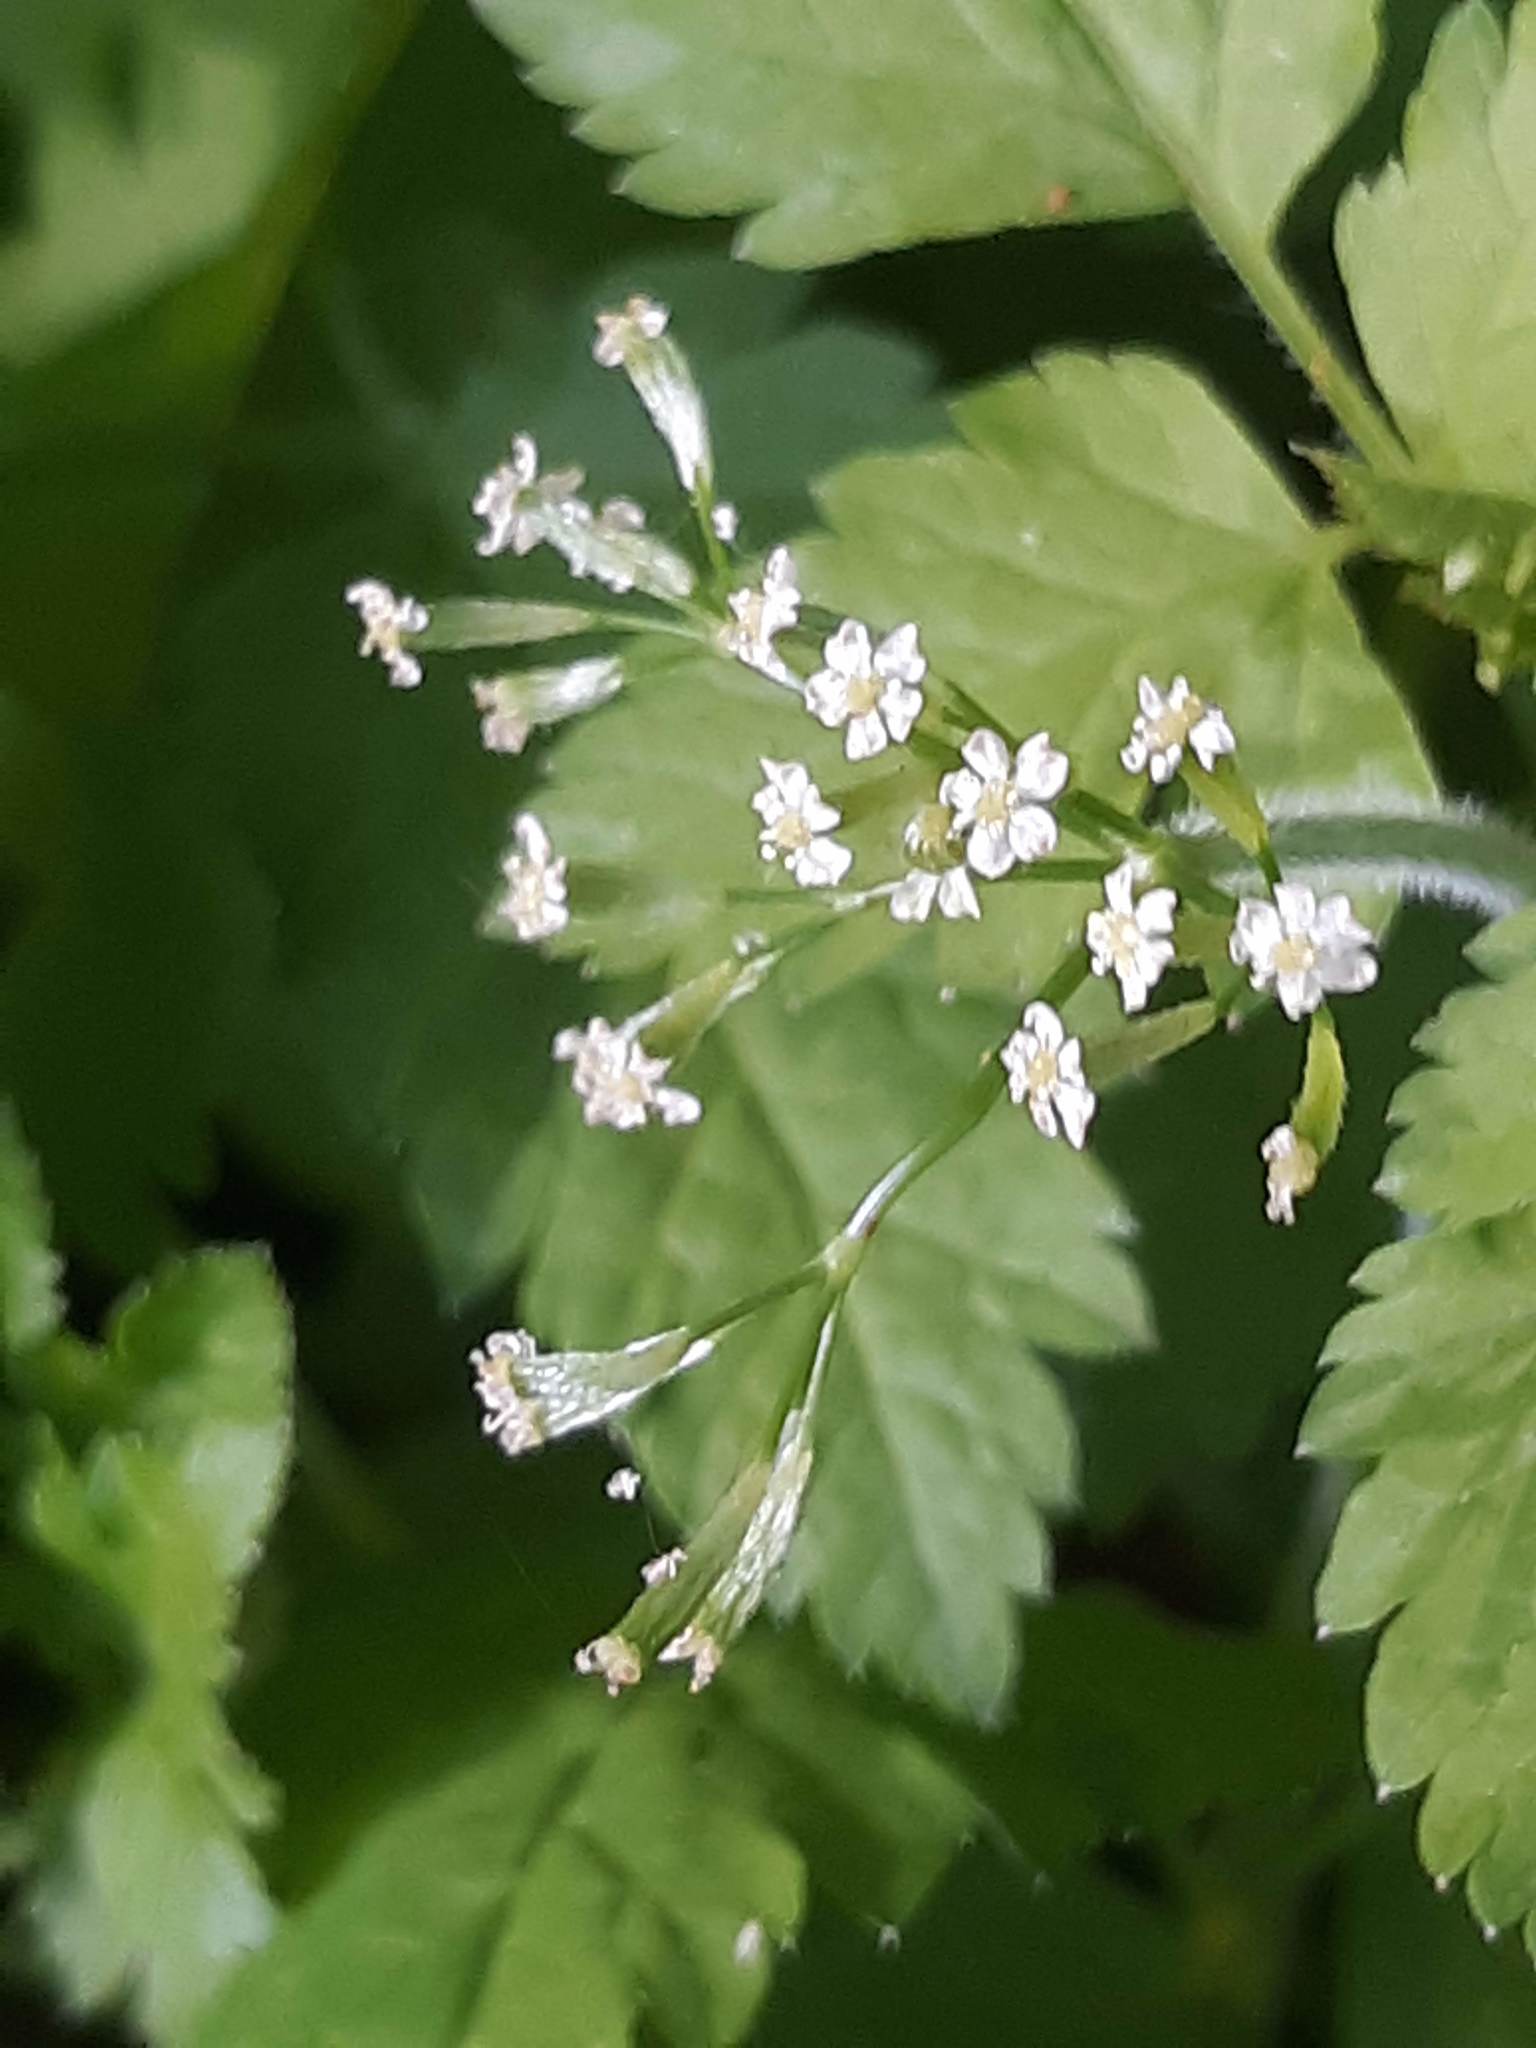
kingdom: Plantae
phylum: Tracheophyta
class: Magnoliopsida
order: Apiales
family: Apiaceae
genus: Osmorhiza
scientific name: Osmorhiza berteroi
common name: Mountain sweet cicely
